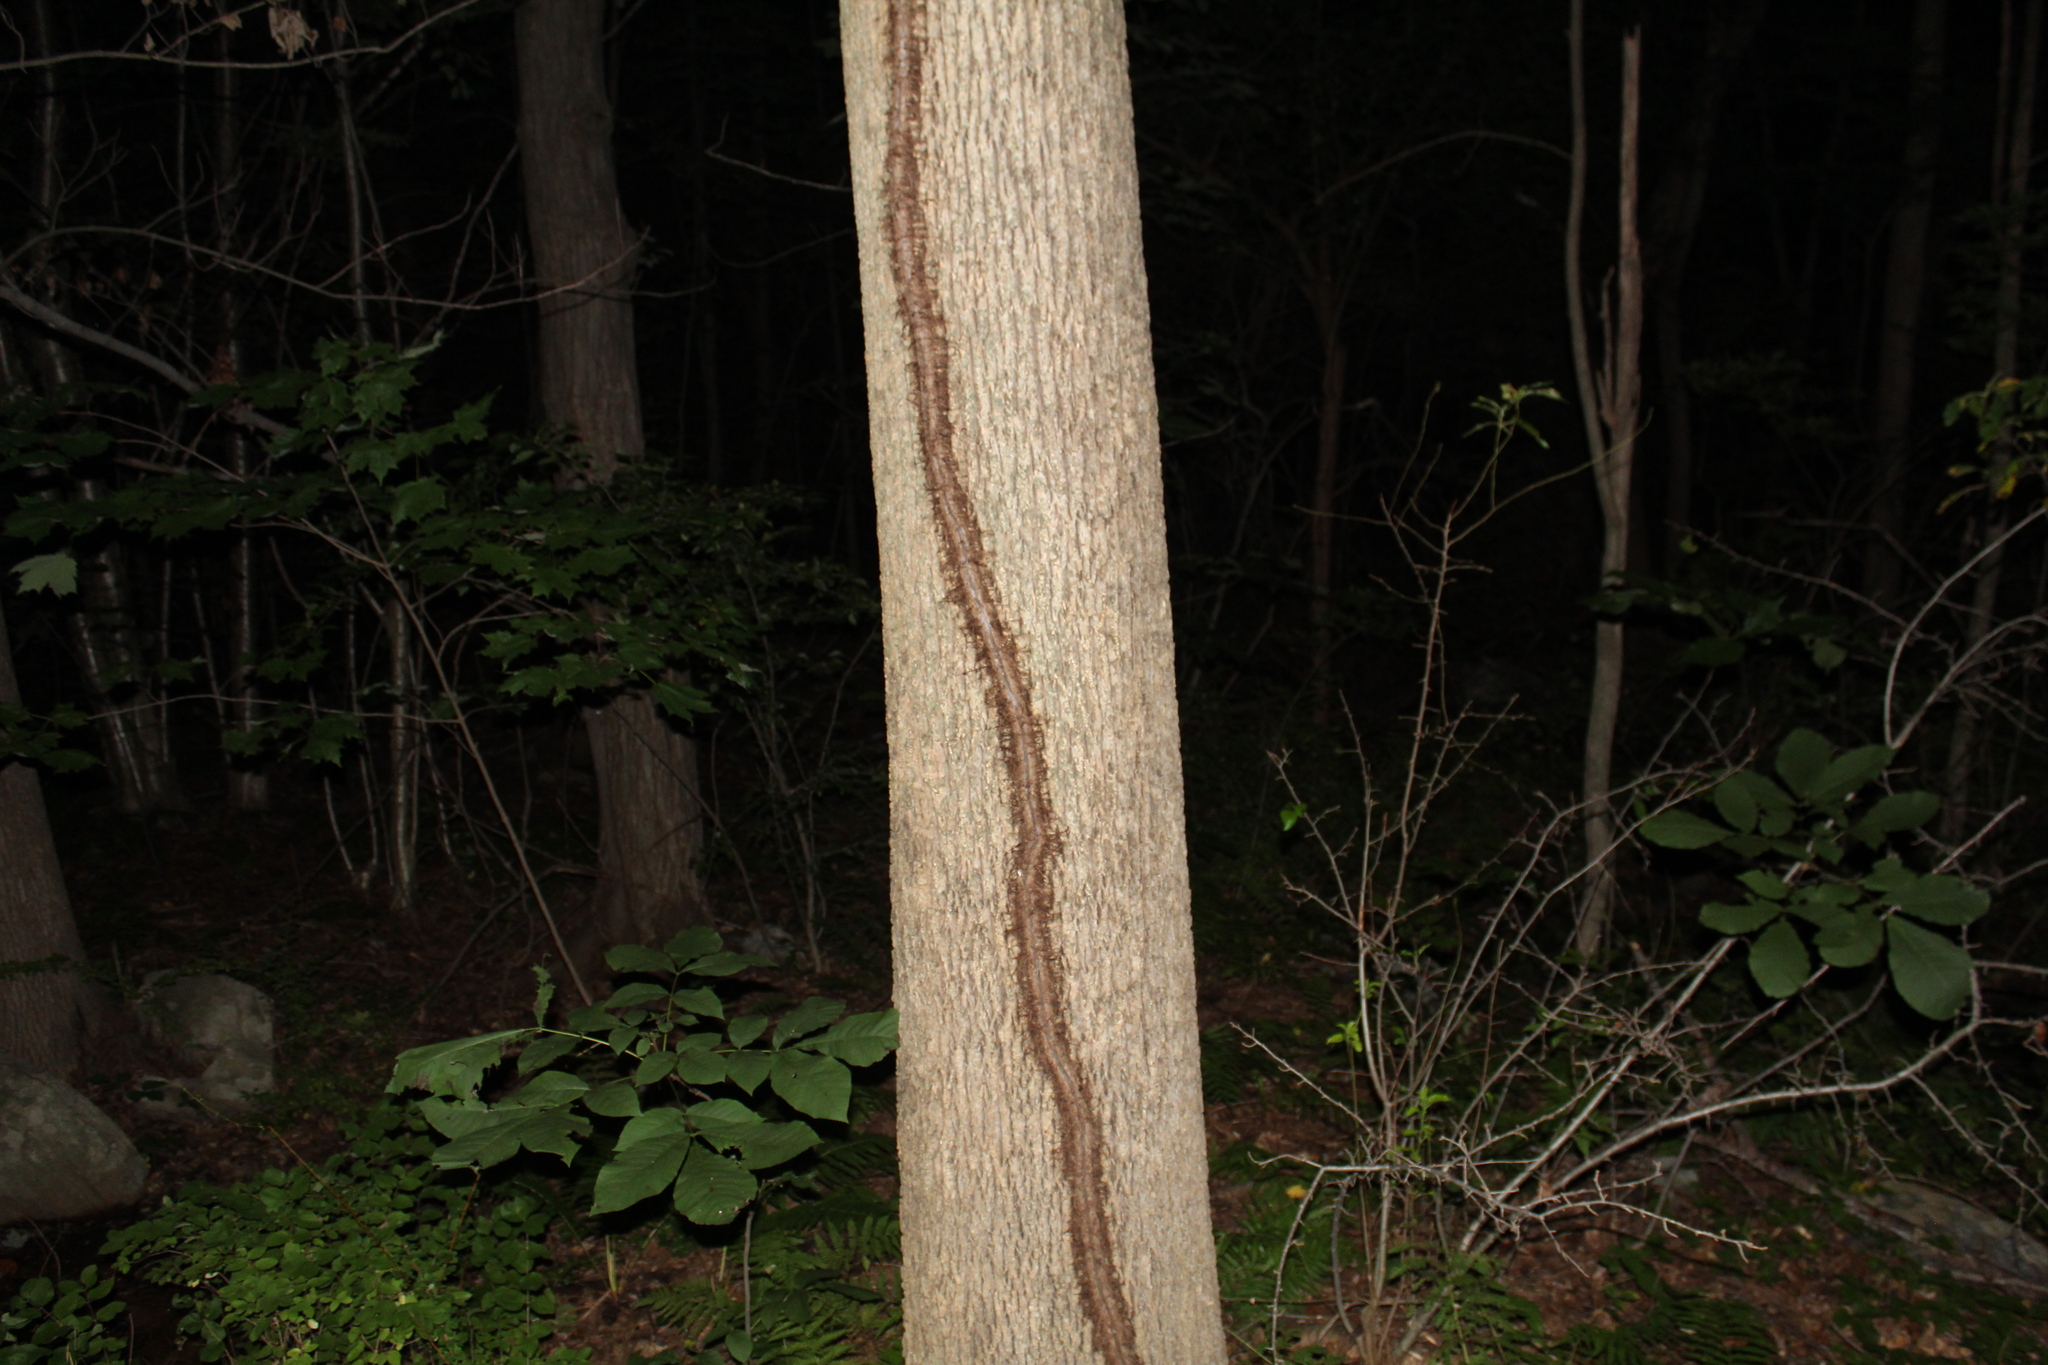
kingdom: Plantae
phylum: Tracheophyta
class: Magnoliopsida
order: Sapindales
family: Anacardiaceae
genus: Toxicodendron
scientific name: Toxicodendron radicans
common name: Poison ivy
